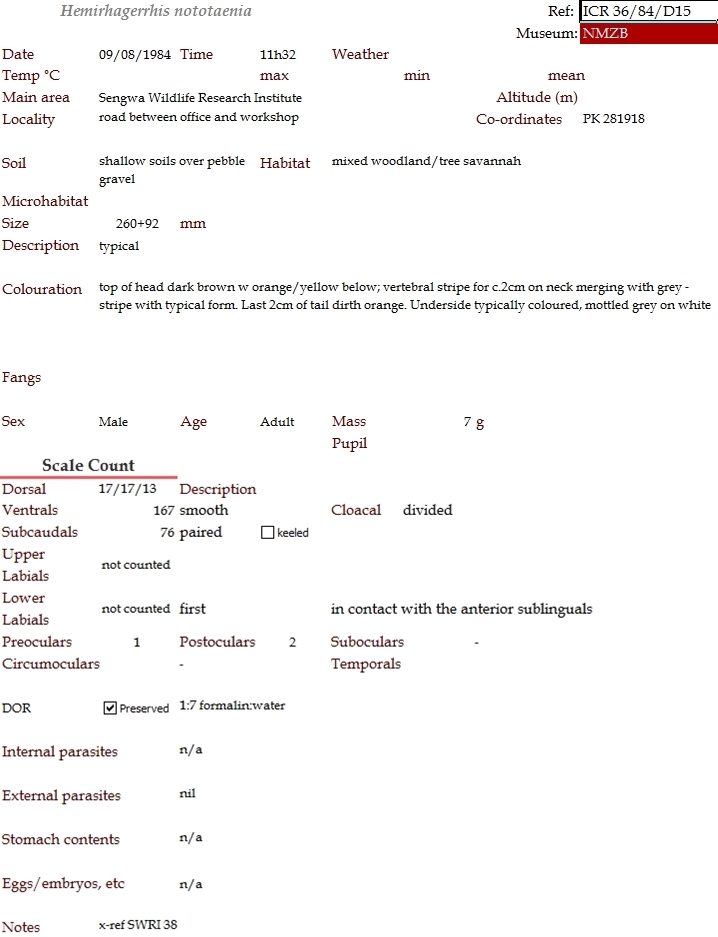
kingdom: Animalia
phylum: Chordata
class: Squamata
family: Psammophiidae
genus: Hemirhagerrhis
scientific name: Hemirhagerrhis nototaenia
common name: Mopane snake
